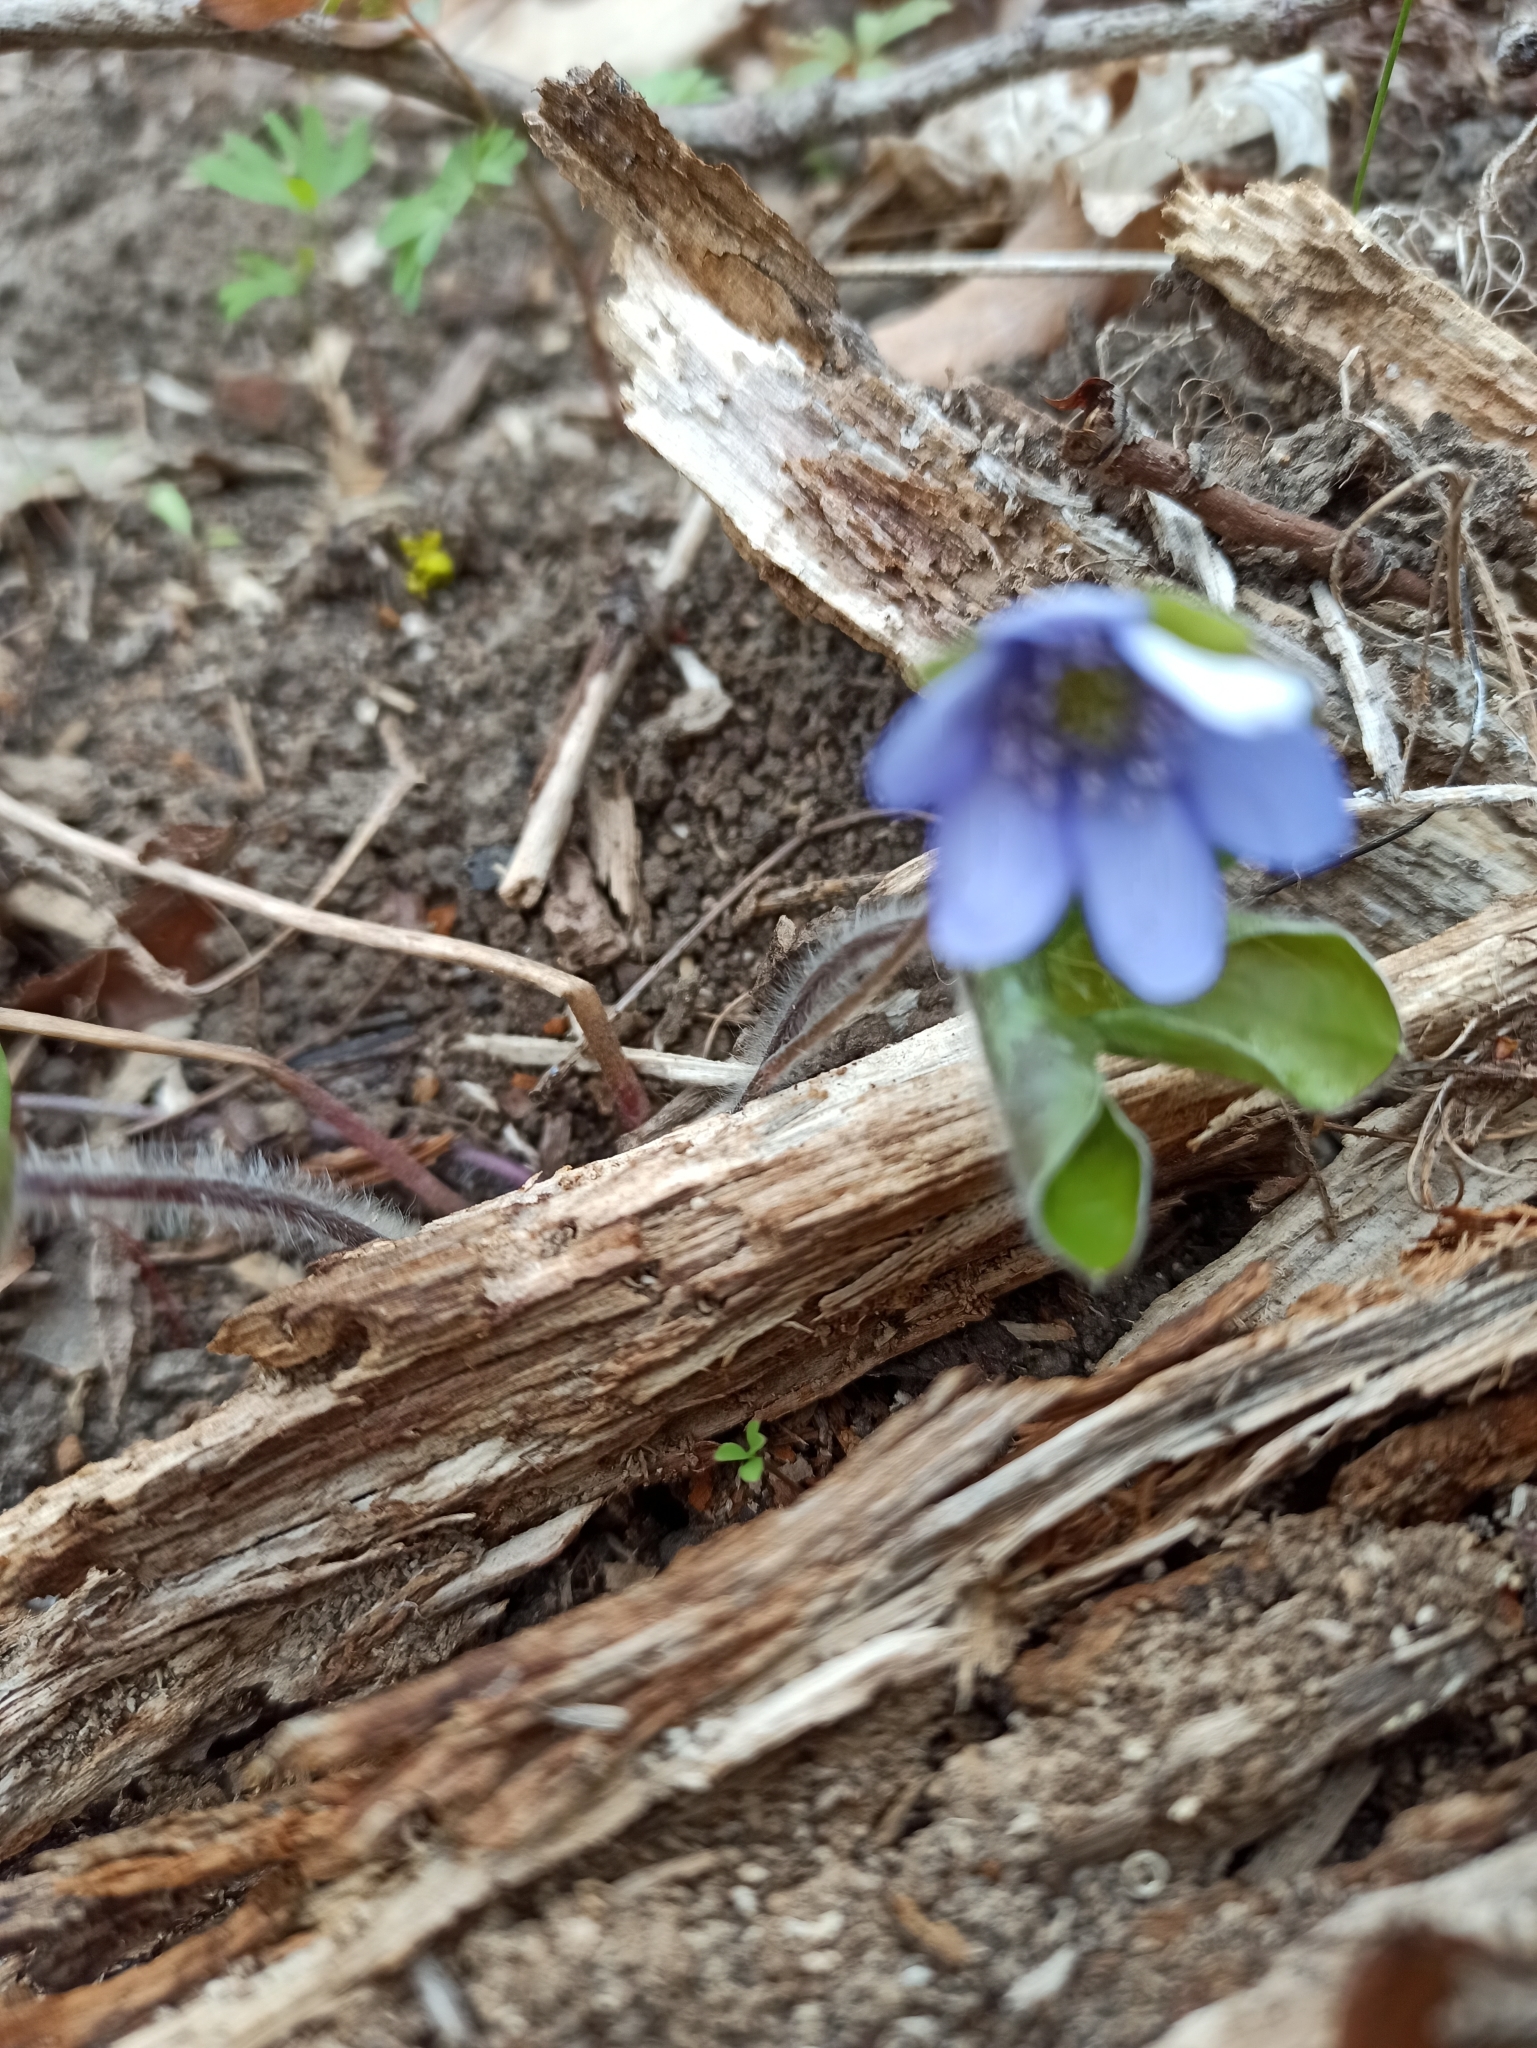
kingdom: Plantae
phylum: Tracheophyta
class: Magnoliopsida
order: Ranunculales
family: Ranunculaceae
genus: Hepatica
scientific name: Hepatica nobilis
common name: Liverleaf
